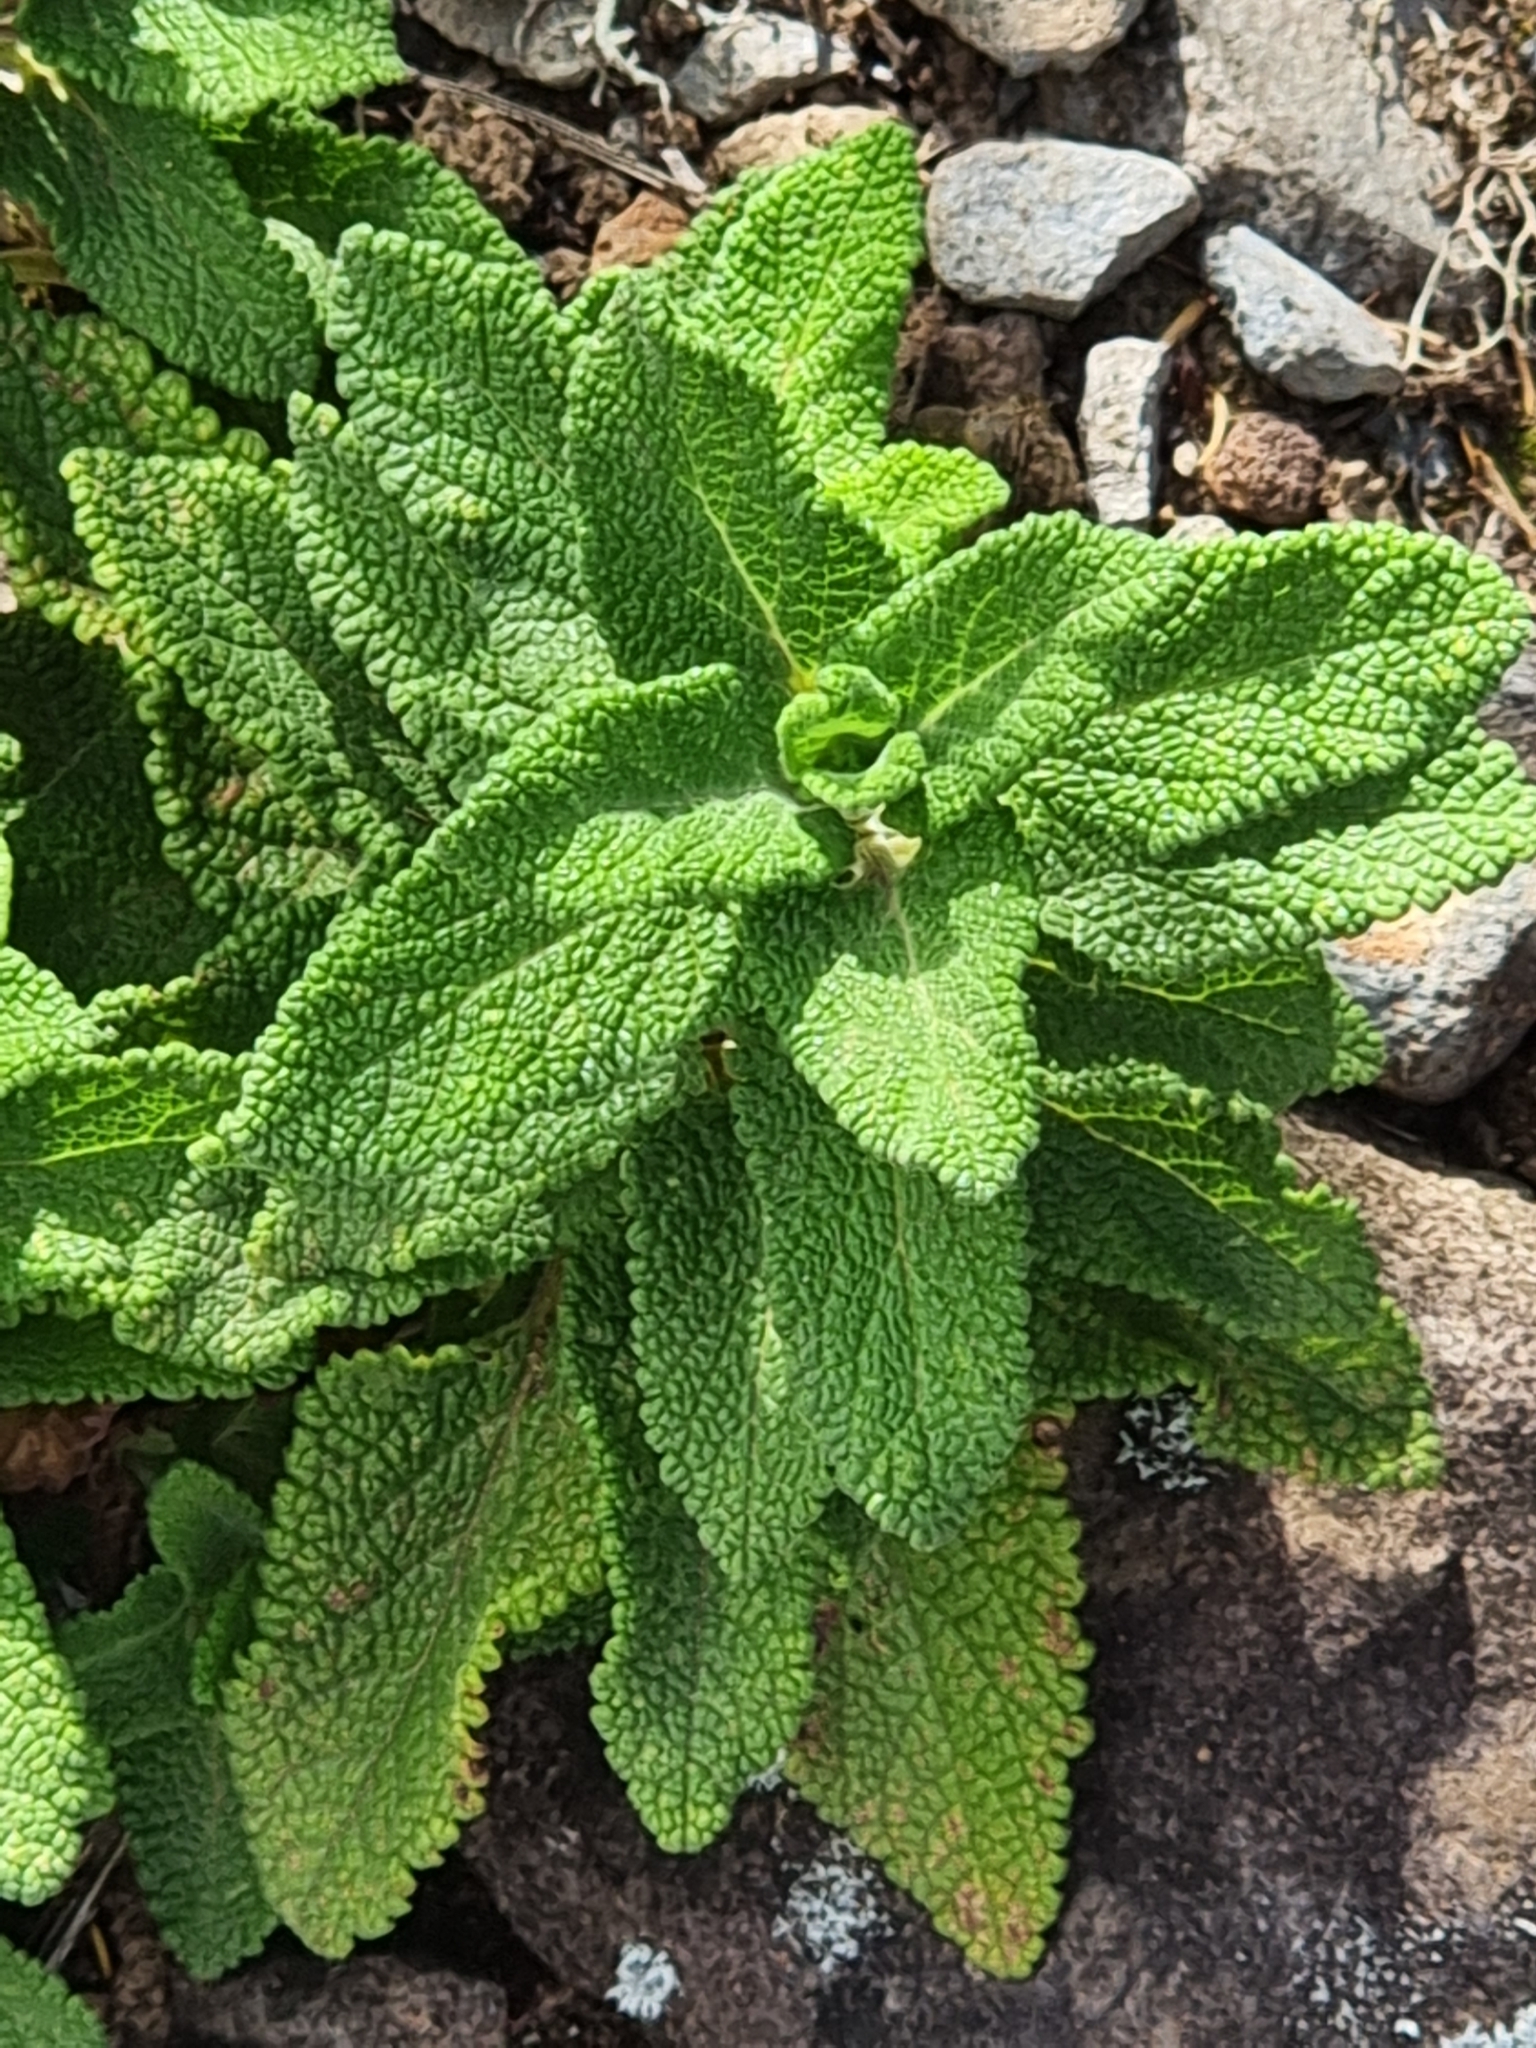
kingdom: Plantae
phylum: Tracheophyta
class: Magnoliopsida
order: Lamiales
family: Lamiaceae
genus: Teucrium
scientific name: Teucrium francoi
